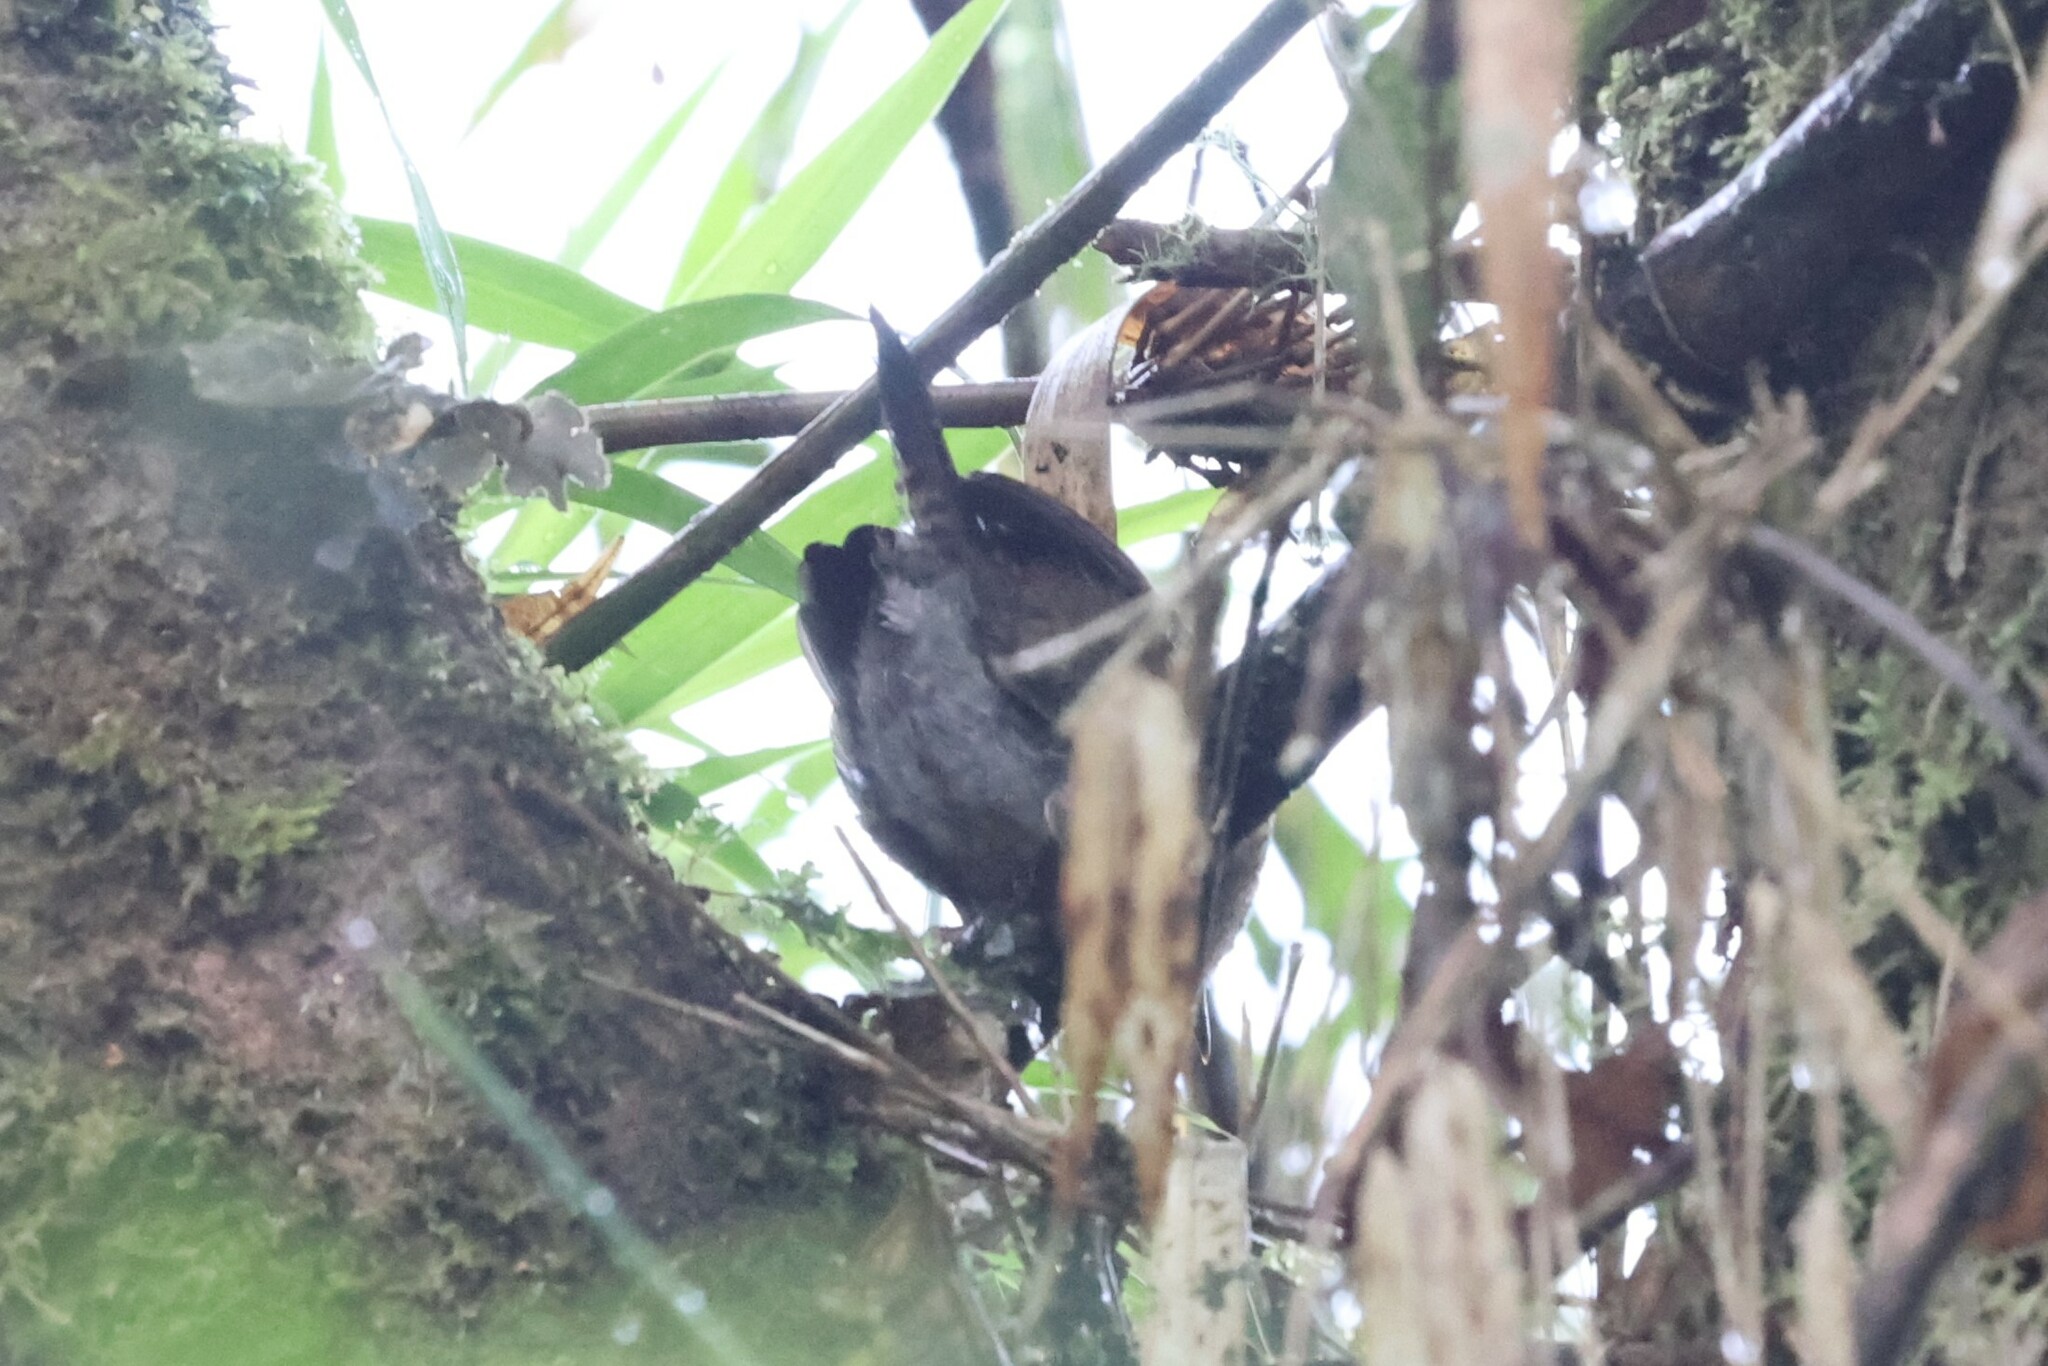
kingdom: Animalia
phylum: Chordata
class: Aves
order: Passeriformes
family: Troglodytidae
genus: Troglodytes
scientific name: Troglodytes solstitialis
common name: Mountain wren
